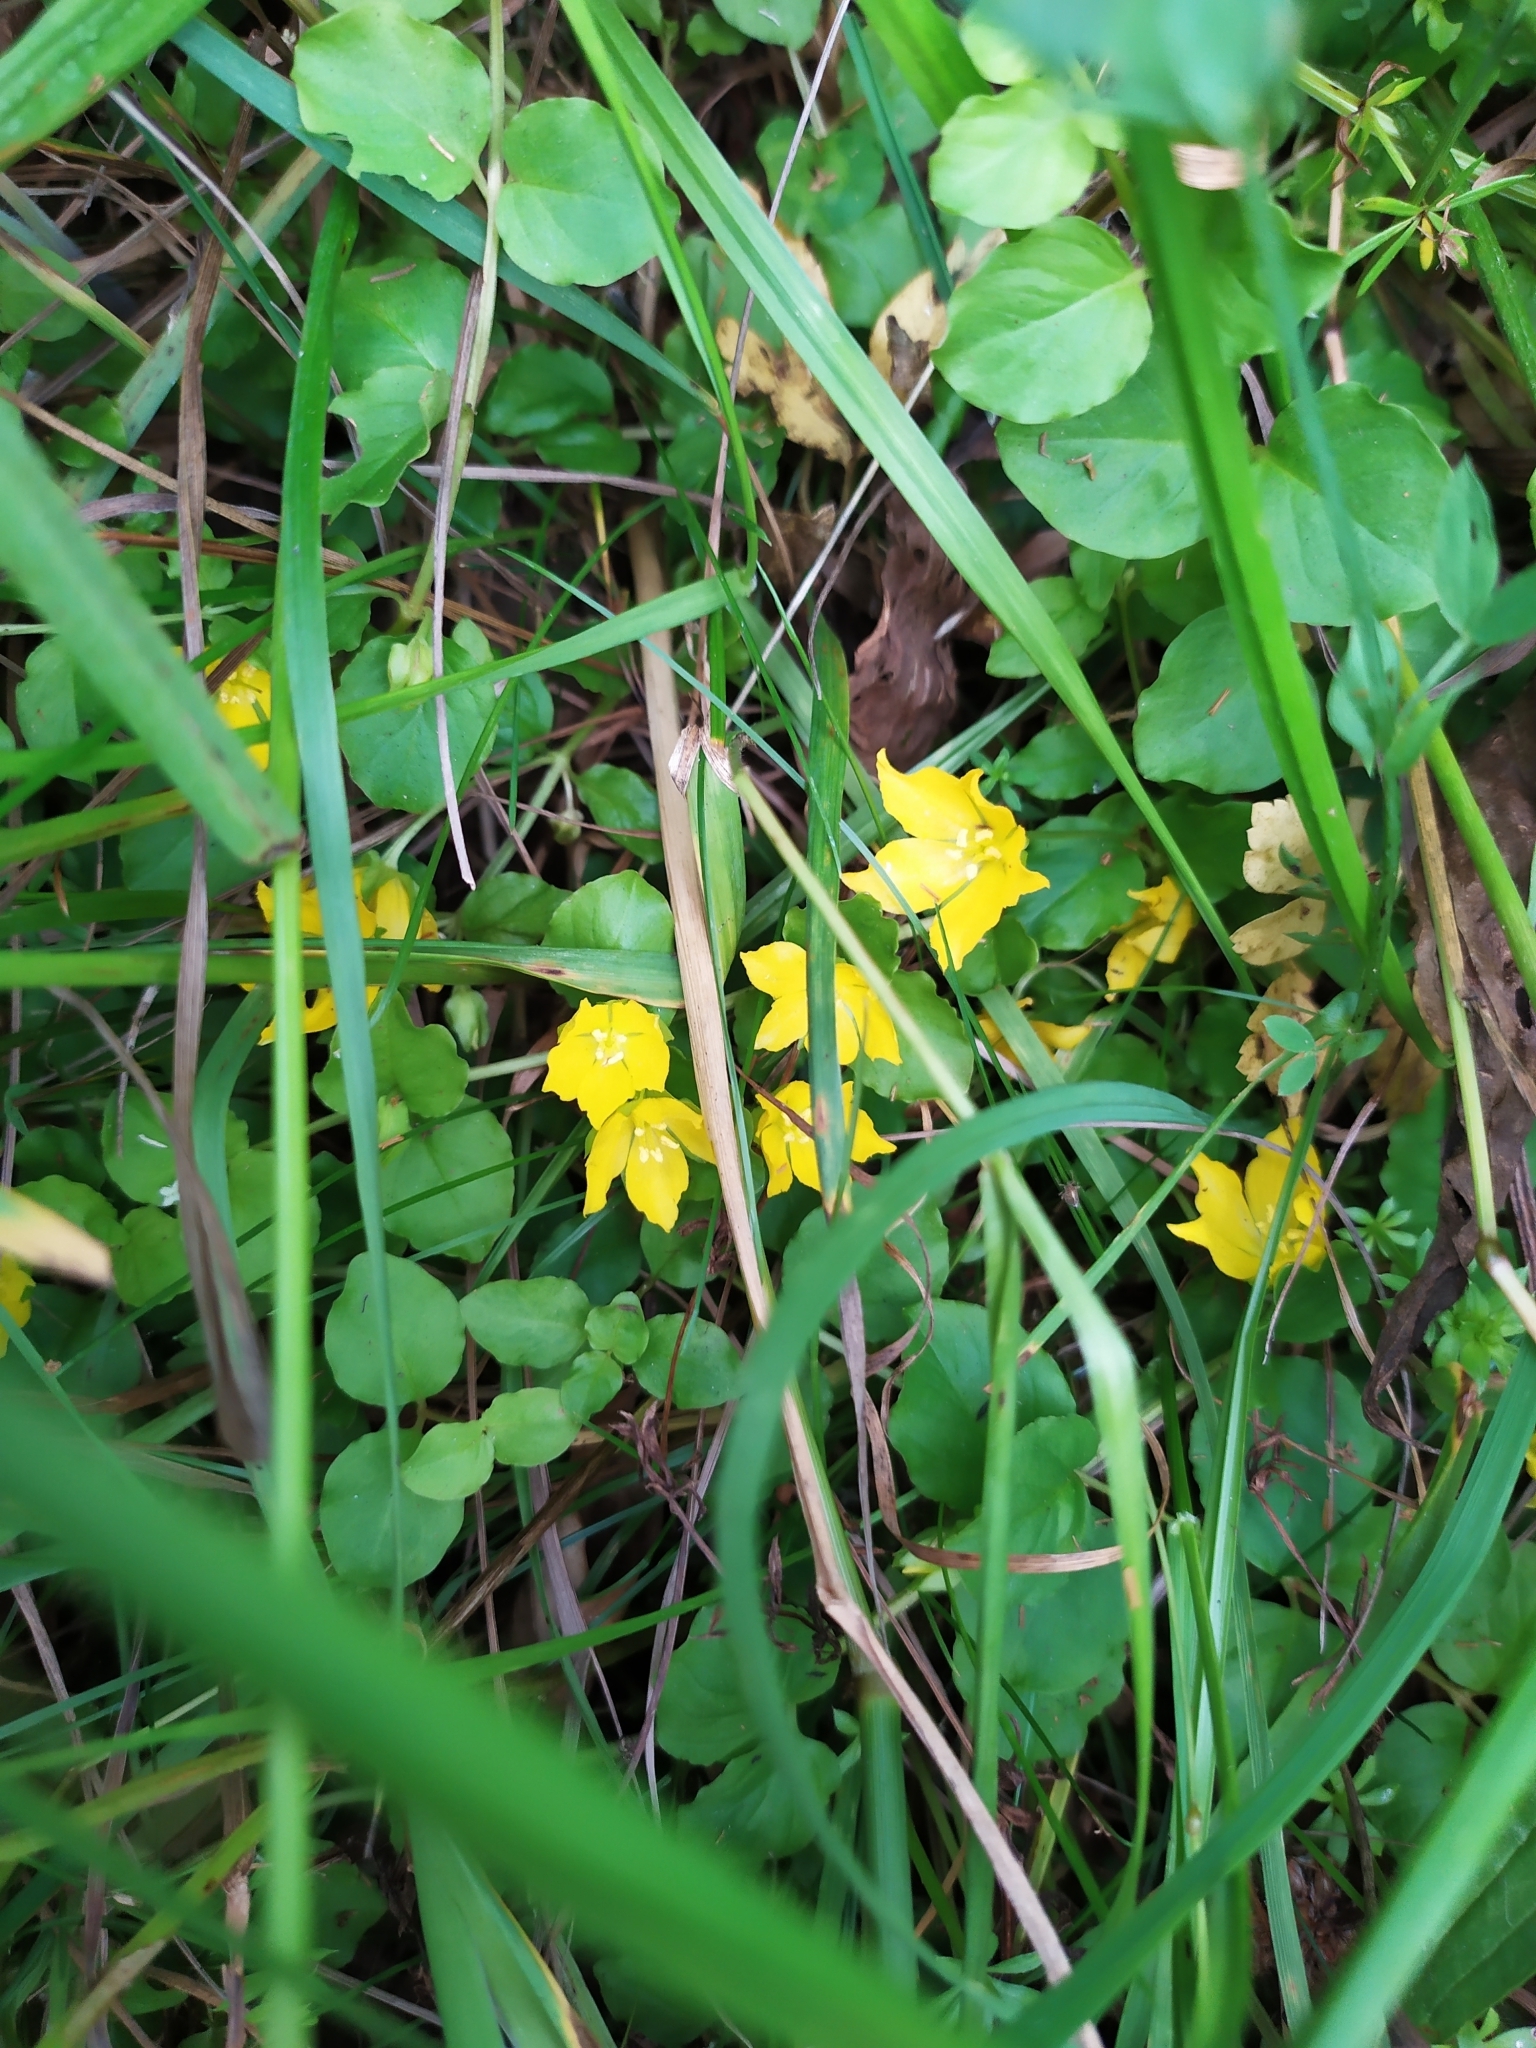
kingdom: Plantae
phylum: Tracheophyta
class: Magnoliopsida
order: Ericales
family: Primulaceae
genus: Lysimachia
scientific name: Lysimachia nummularia
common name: Moneywort
